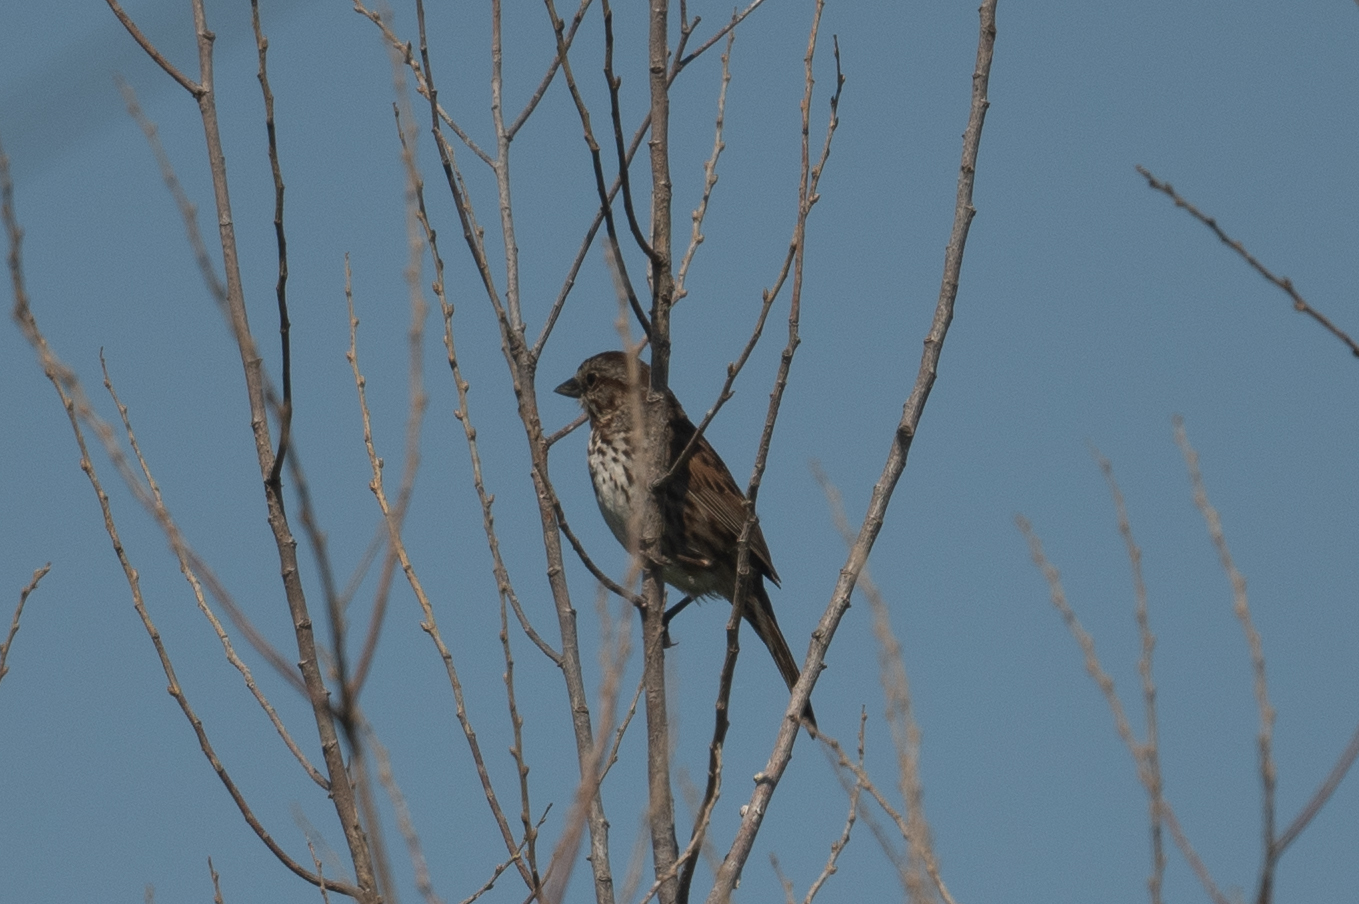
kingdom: Animalia
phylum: Chordata
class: Aves
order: Passeriformes
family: Passerellidae
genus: Melospiza
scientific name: Melospiza melodia
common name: Song sparrow
